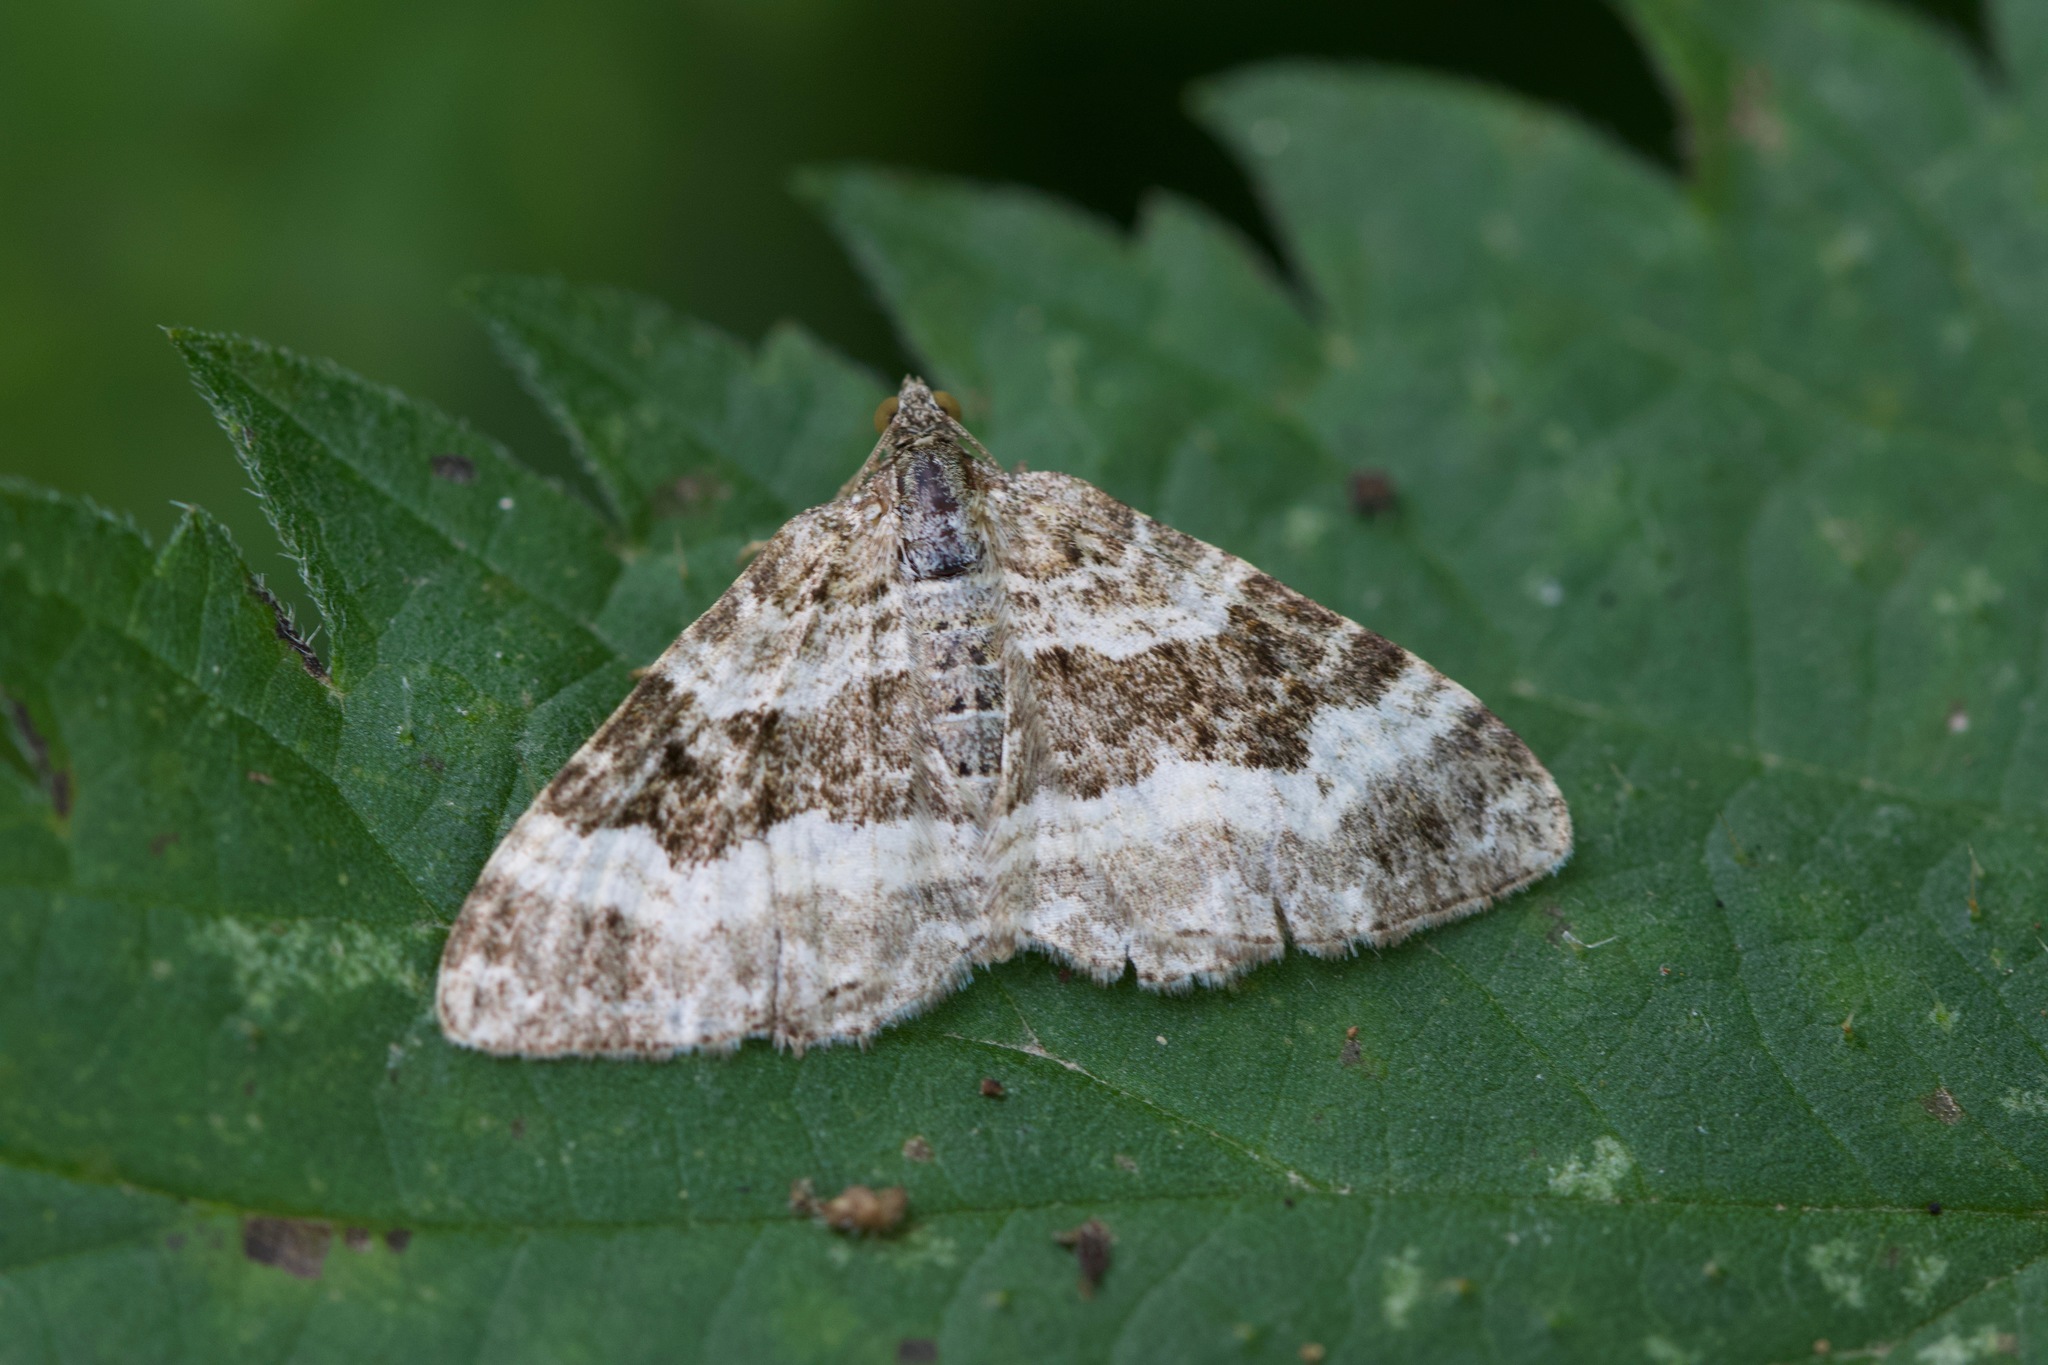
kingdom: Animalia
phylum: Arthropoda
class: Insecta
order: Lepidoptera
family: Geometridae
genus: Epirrhoe
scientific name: Epirrhoe alternata
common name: Common carpet
